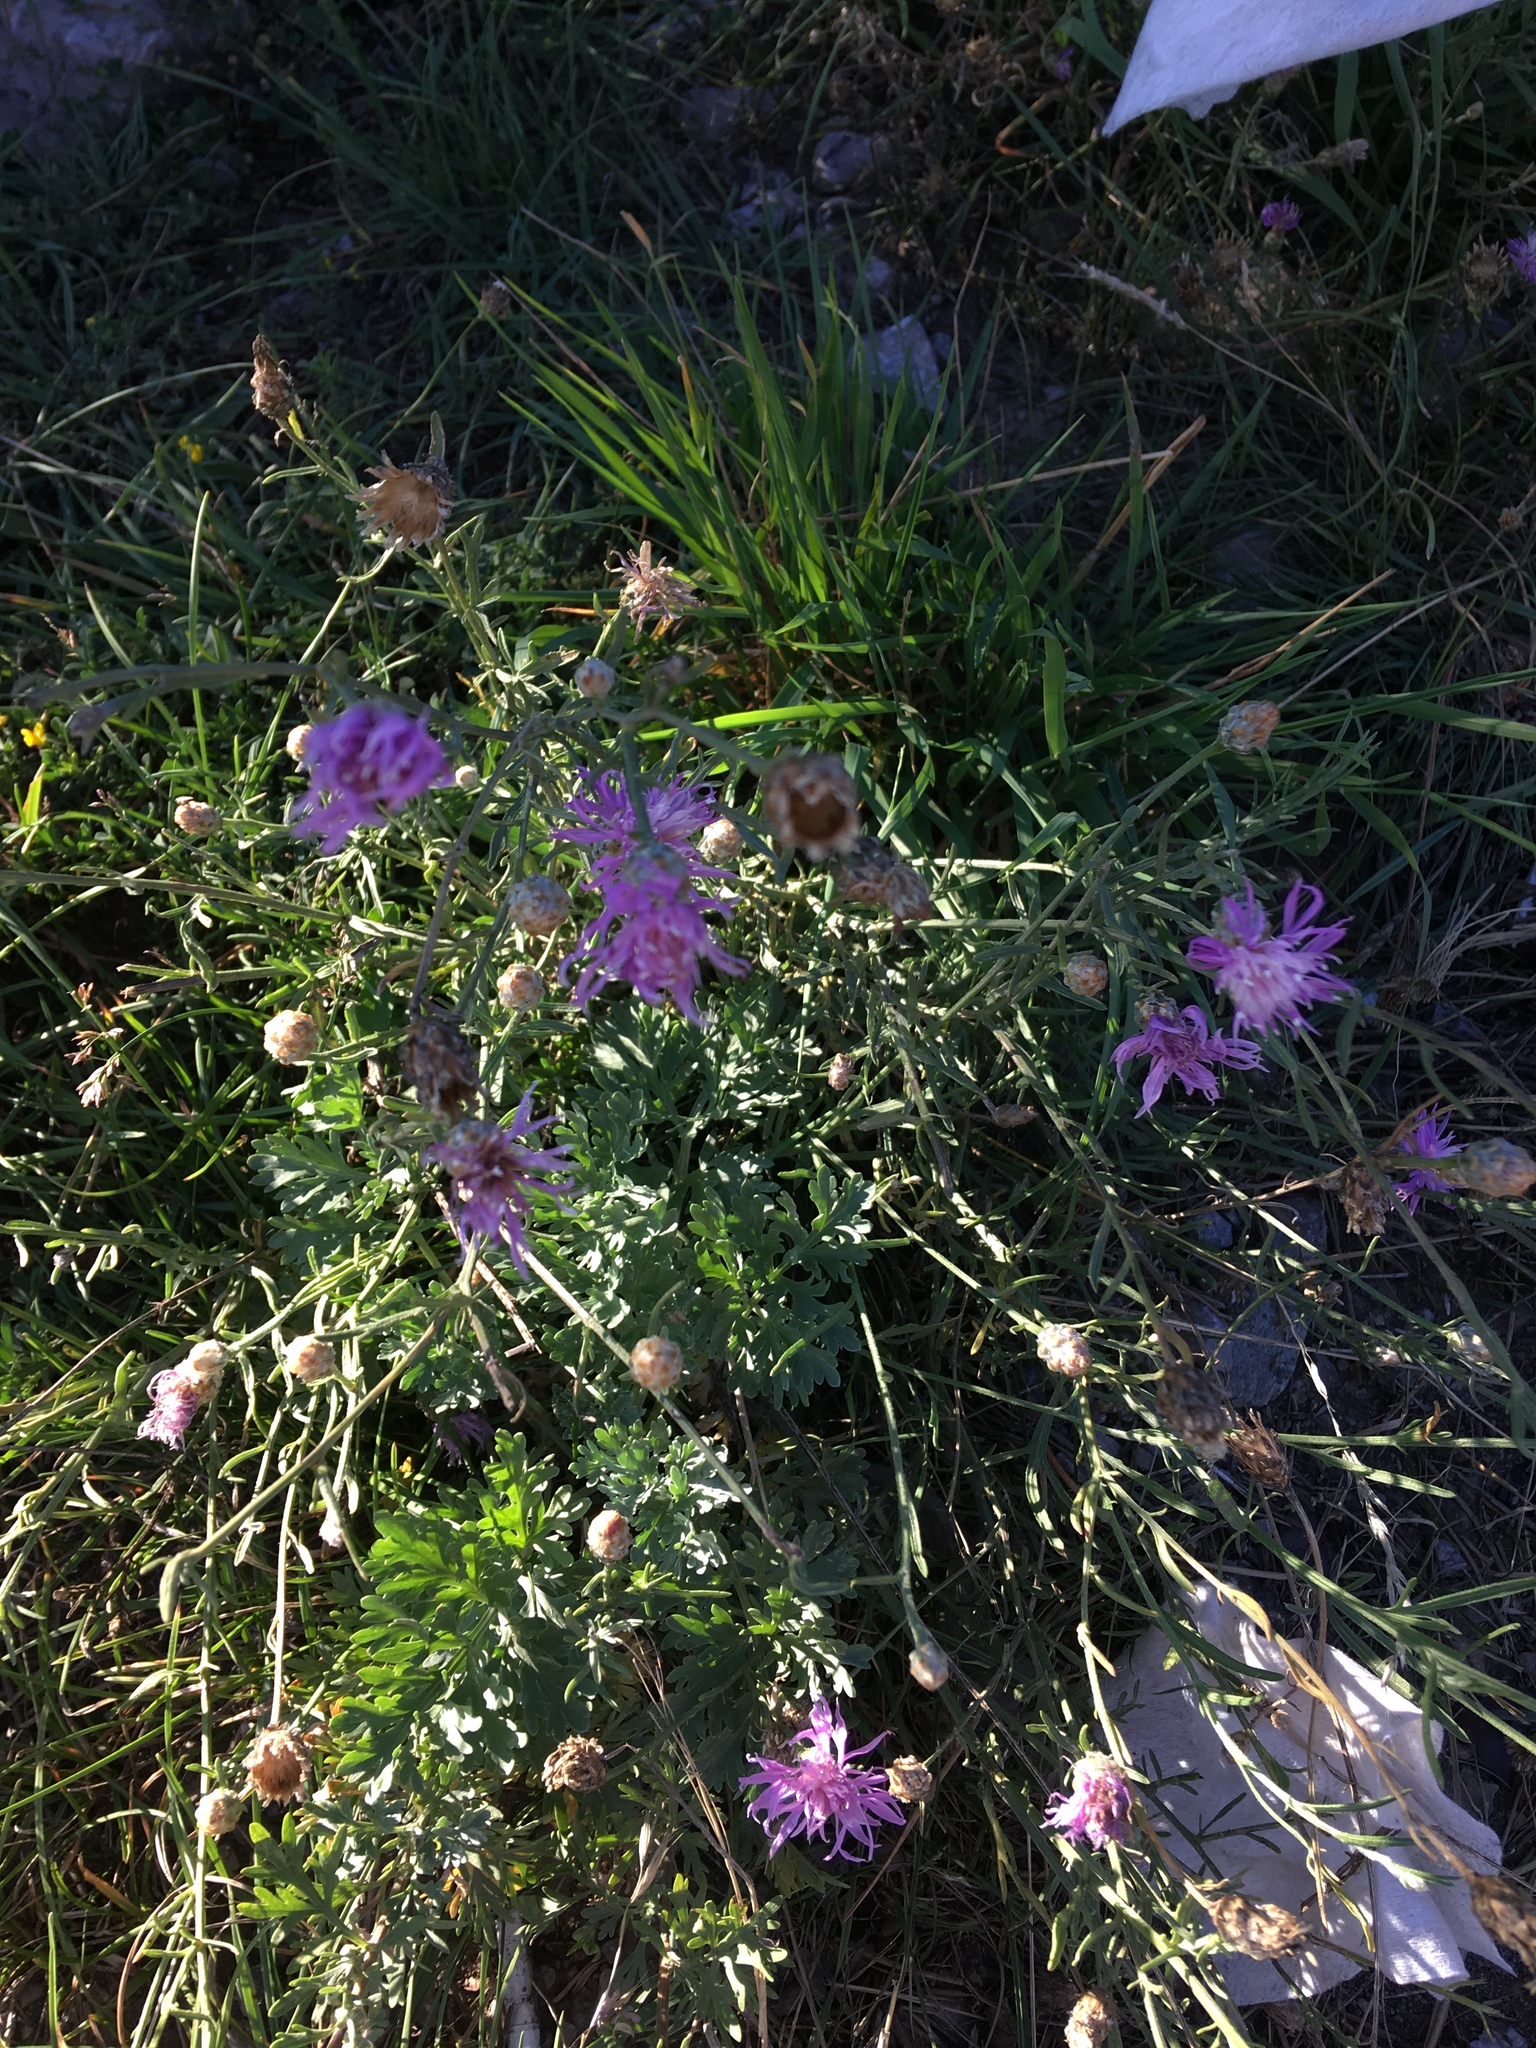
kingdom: Plantae
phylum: Tracheophyta
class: Magnoliopsida
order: Asterales
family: Asteraceae
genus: Centaurea
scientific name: Centaurea jacea
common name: Brown knapweed
